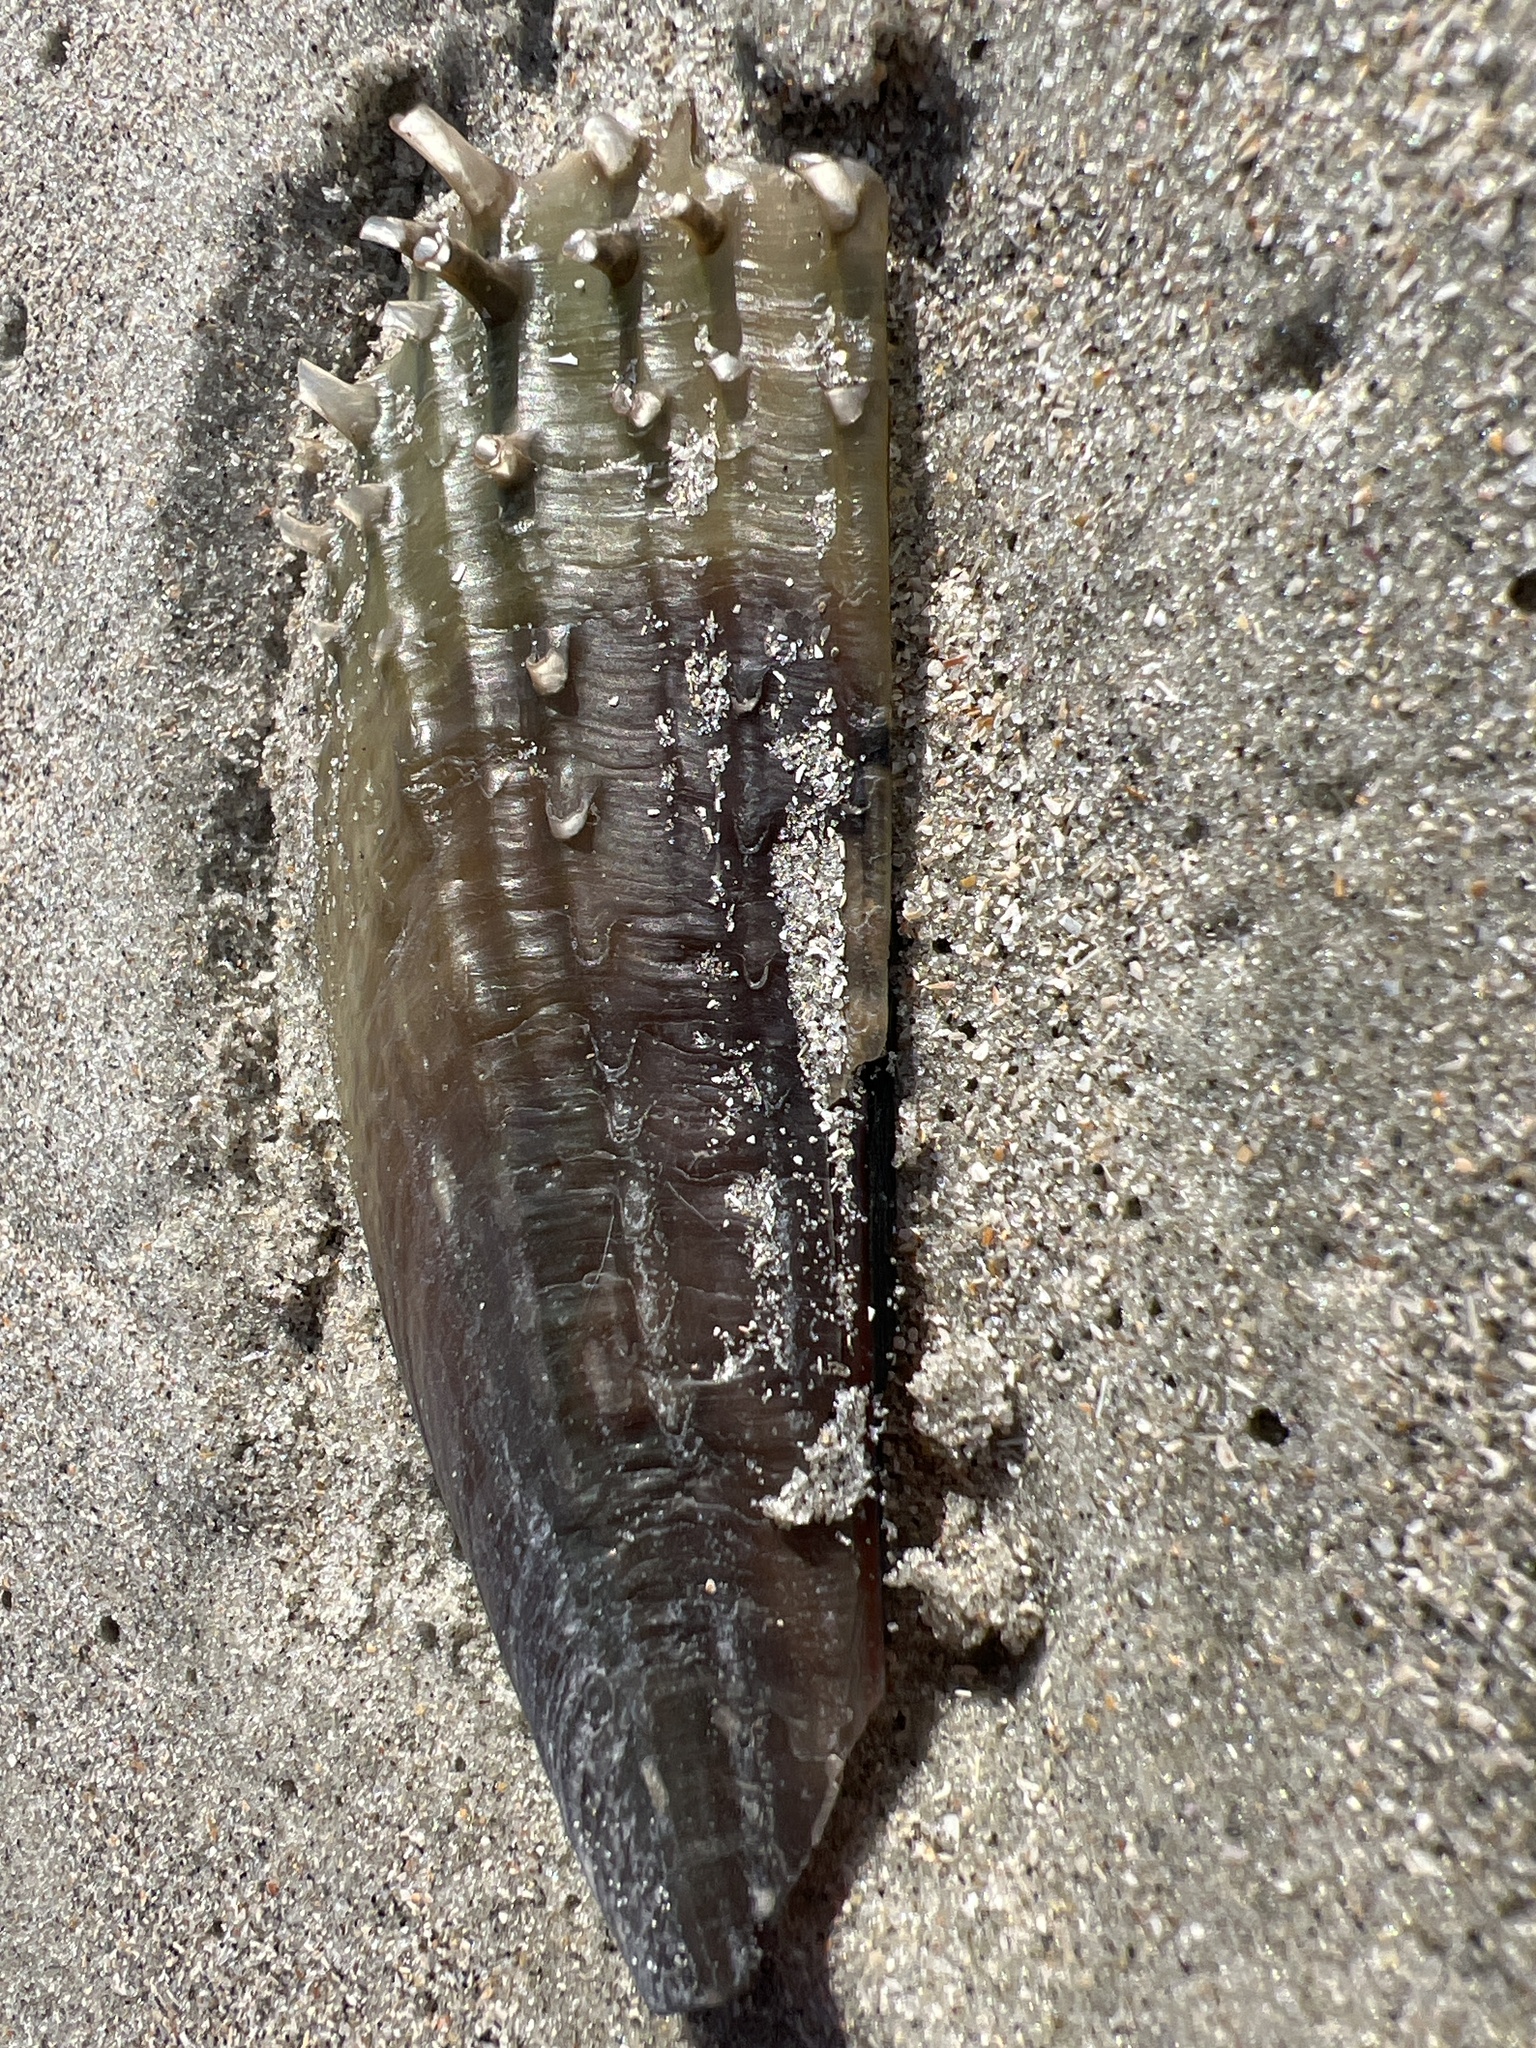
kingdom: Animalia
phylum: Mollusca
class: Bivalvia
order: Ostreida
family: Pinnidae
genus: Atrina
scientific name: Atrina rigida
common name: Stiff penshell
